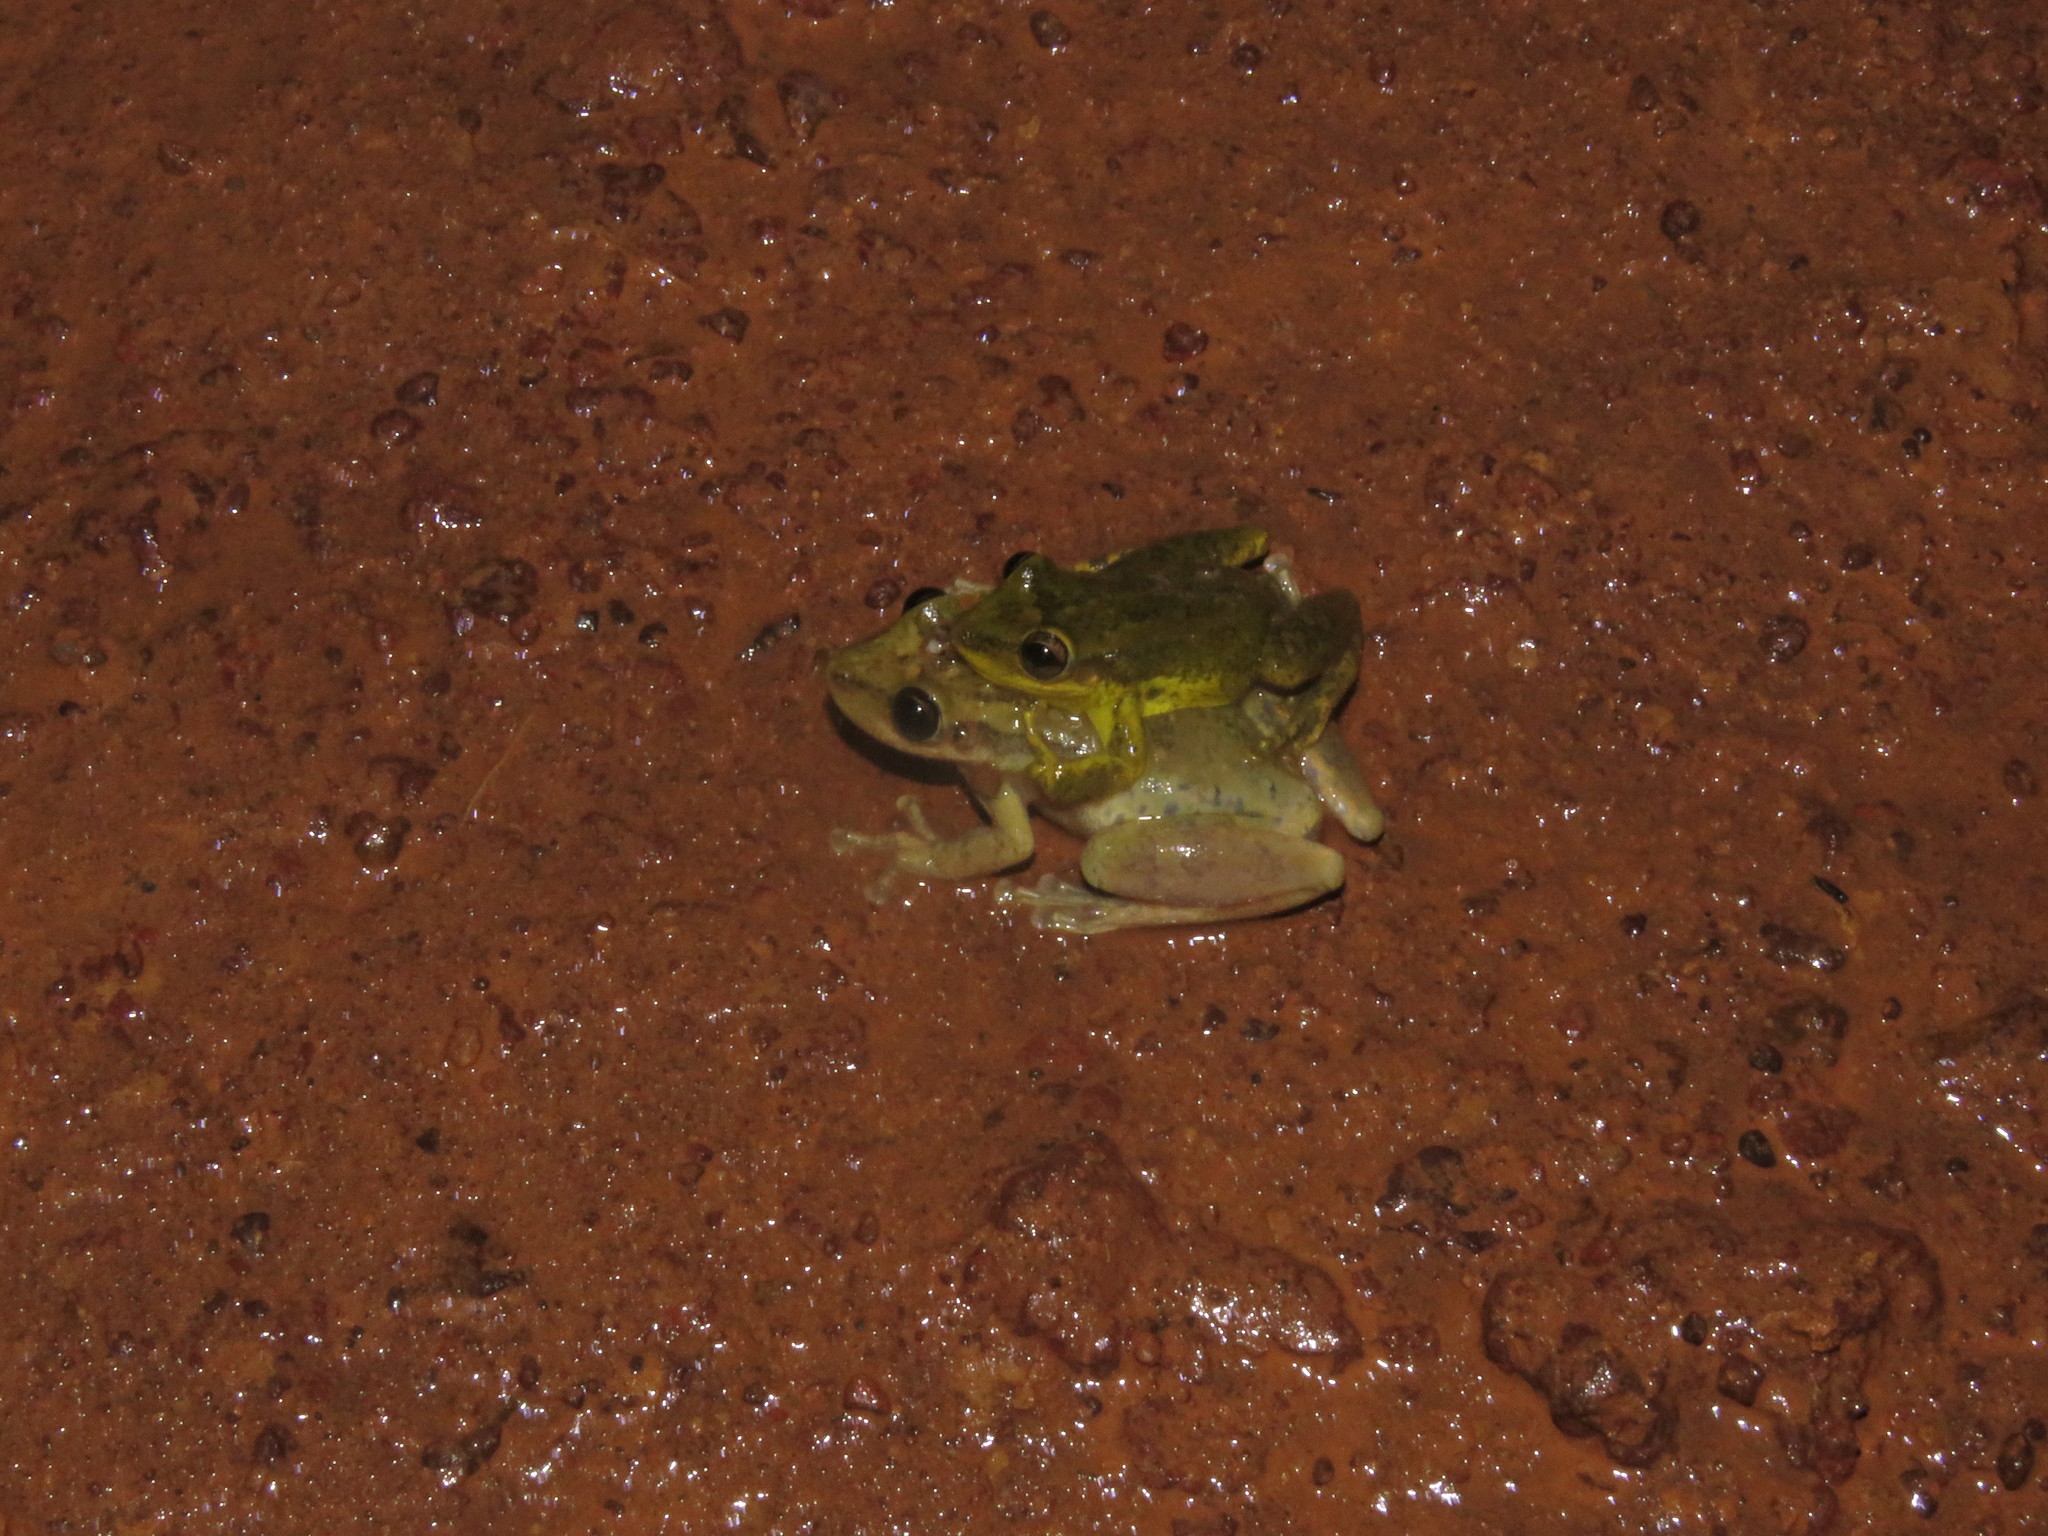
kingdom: Animalia
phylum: Chordata
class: Amphibia
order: Anura
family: Hylidae
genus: Scinax
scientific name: Scinax ruber
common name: Red snouted treefrog
